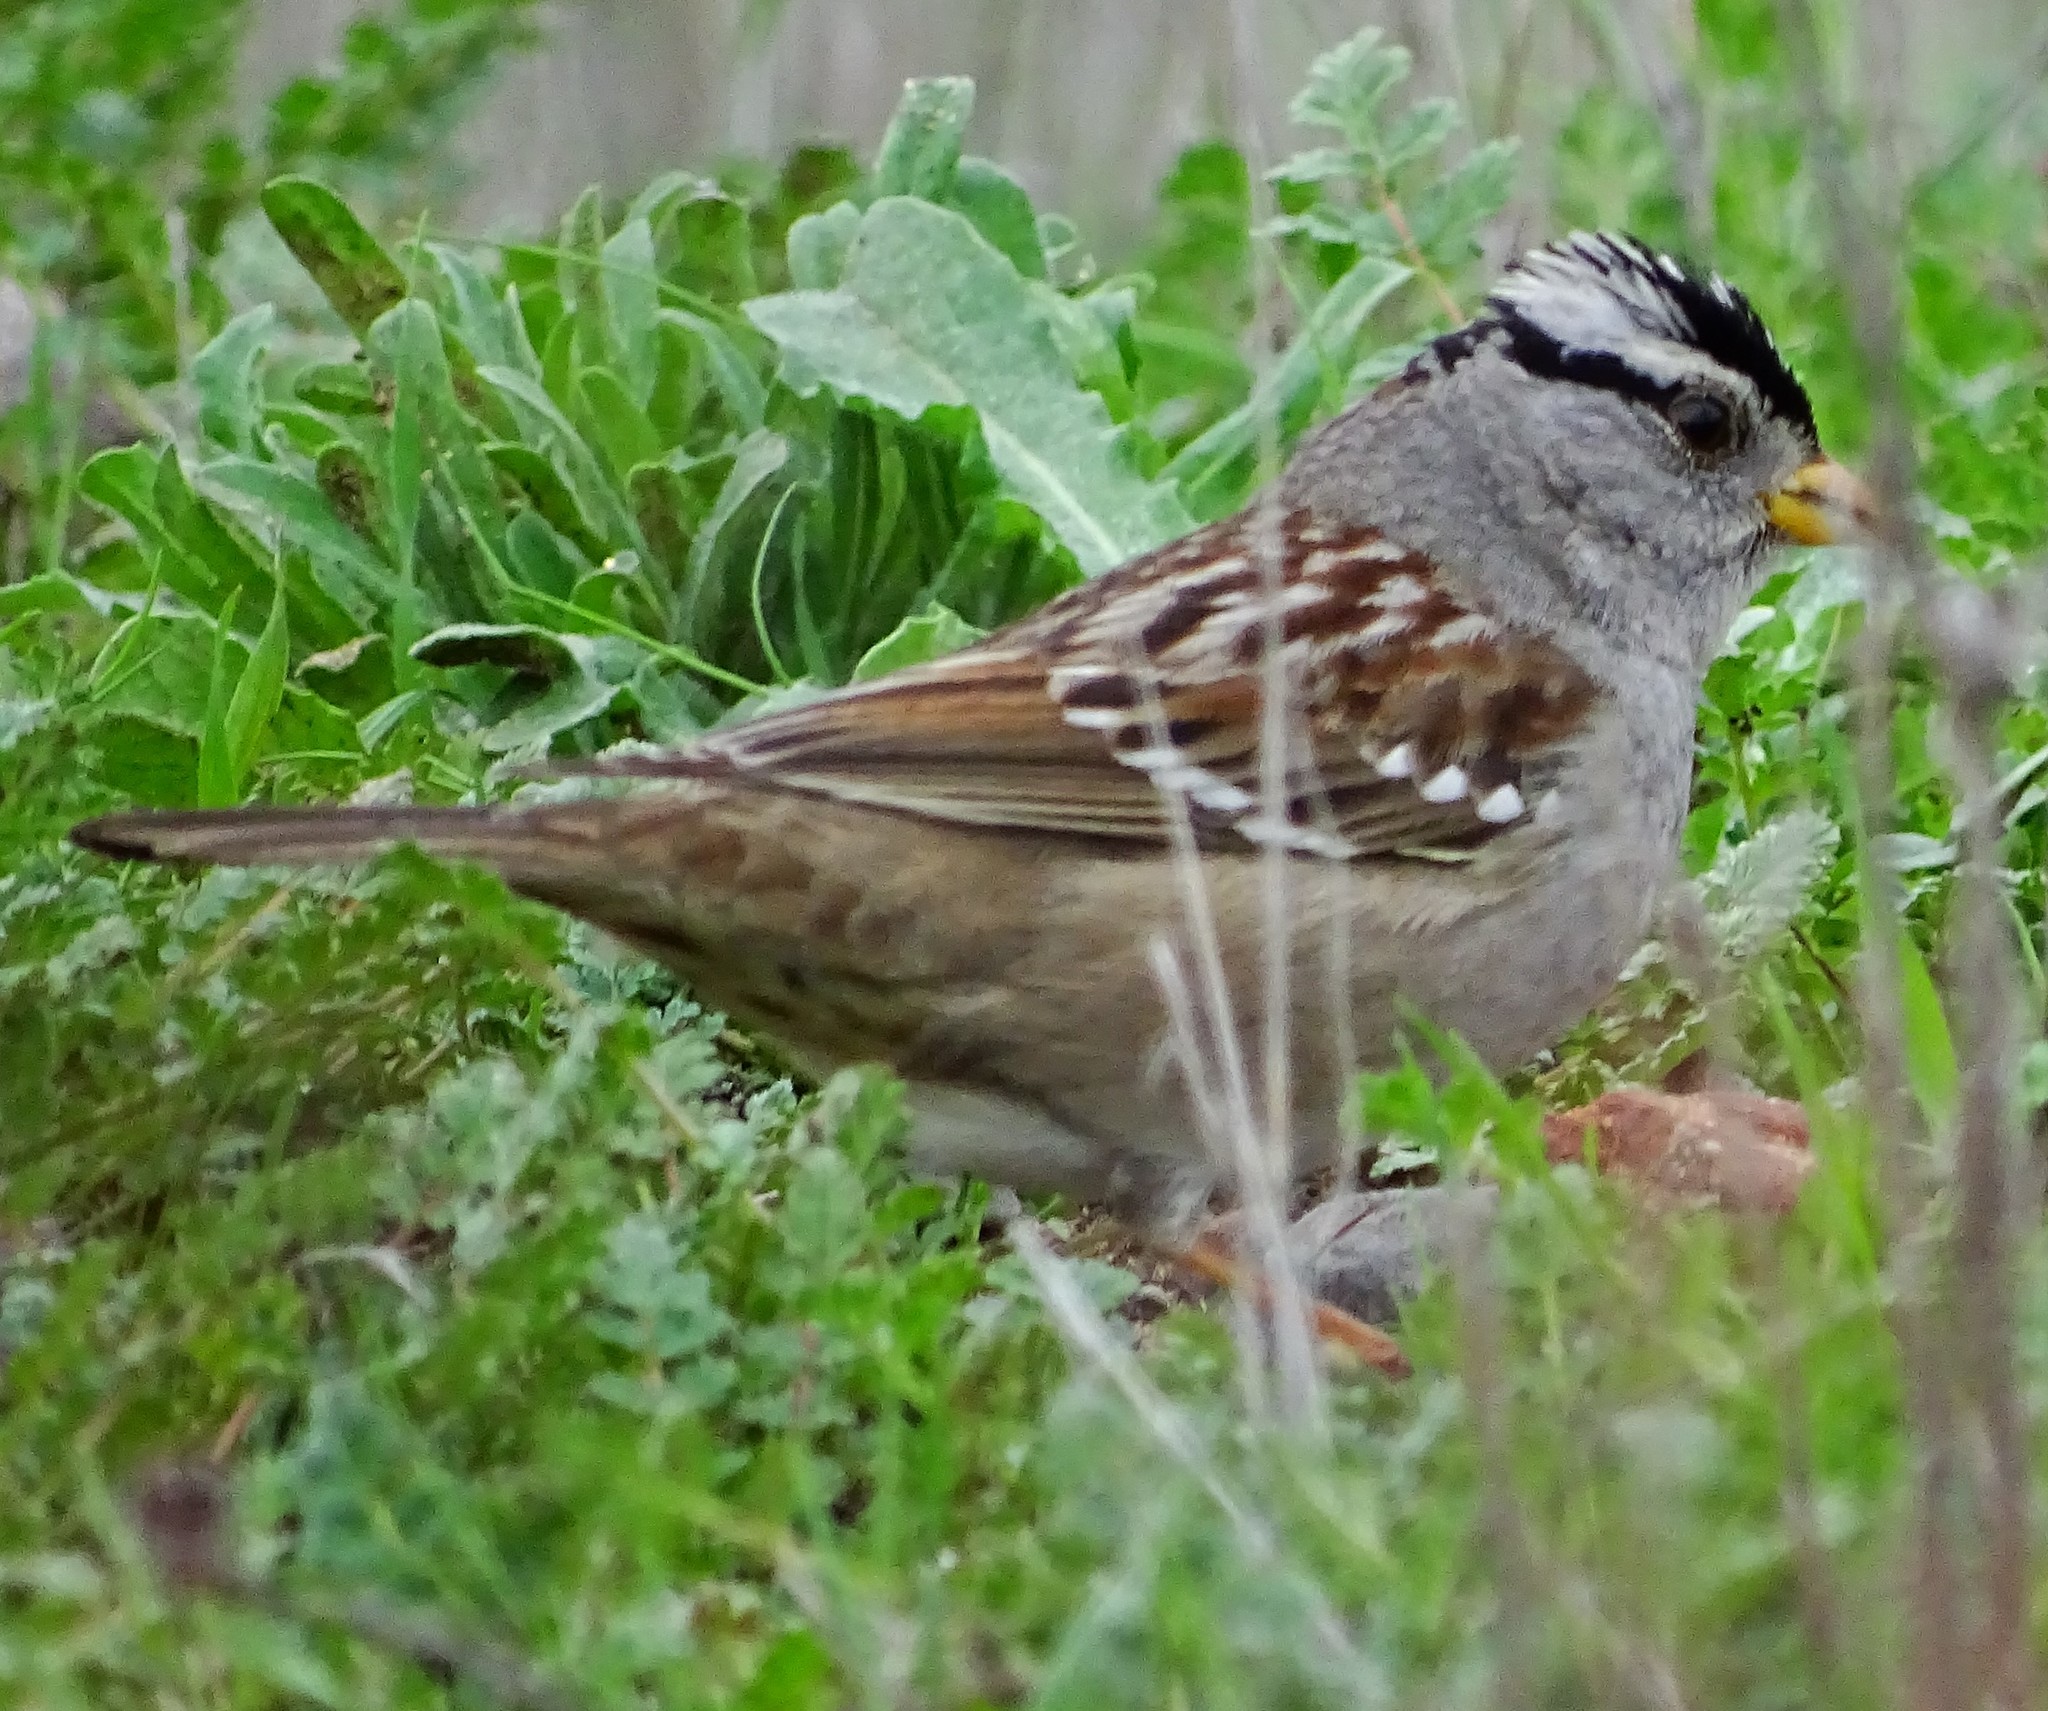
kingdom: Animalia
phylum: Chordata
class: Aves
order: Passeriformes
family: Passerellidae
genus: Zonotrichia
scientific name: Zonotrichia leucophrys
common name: White-crowned sparrow
